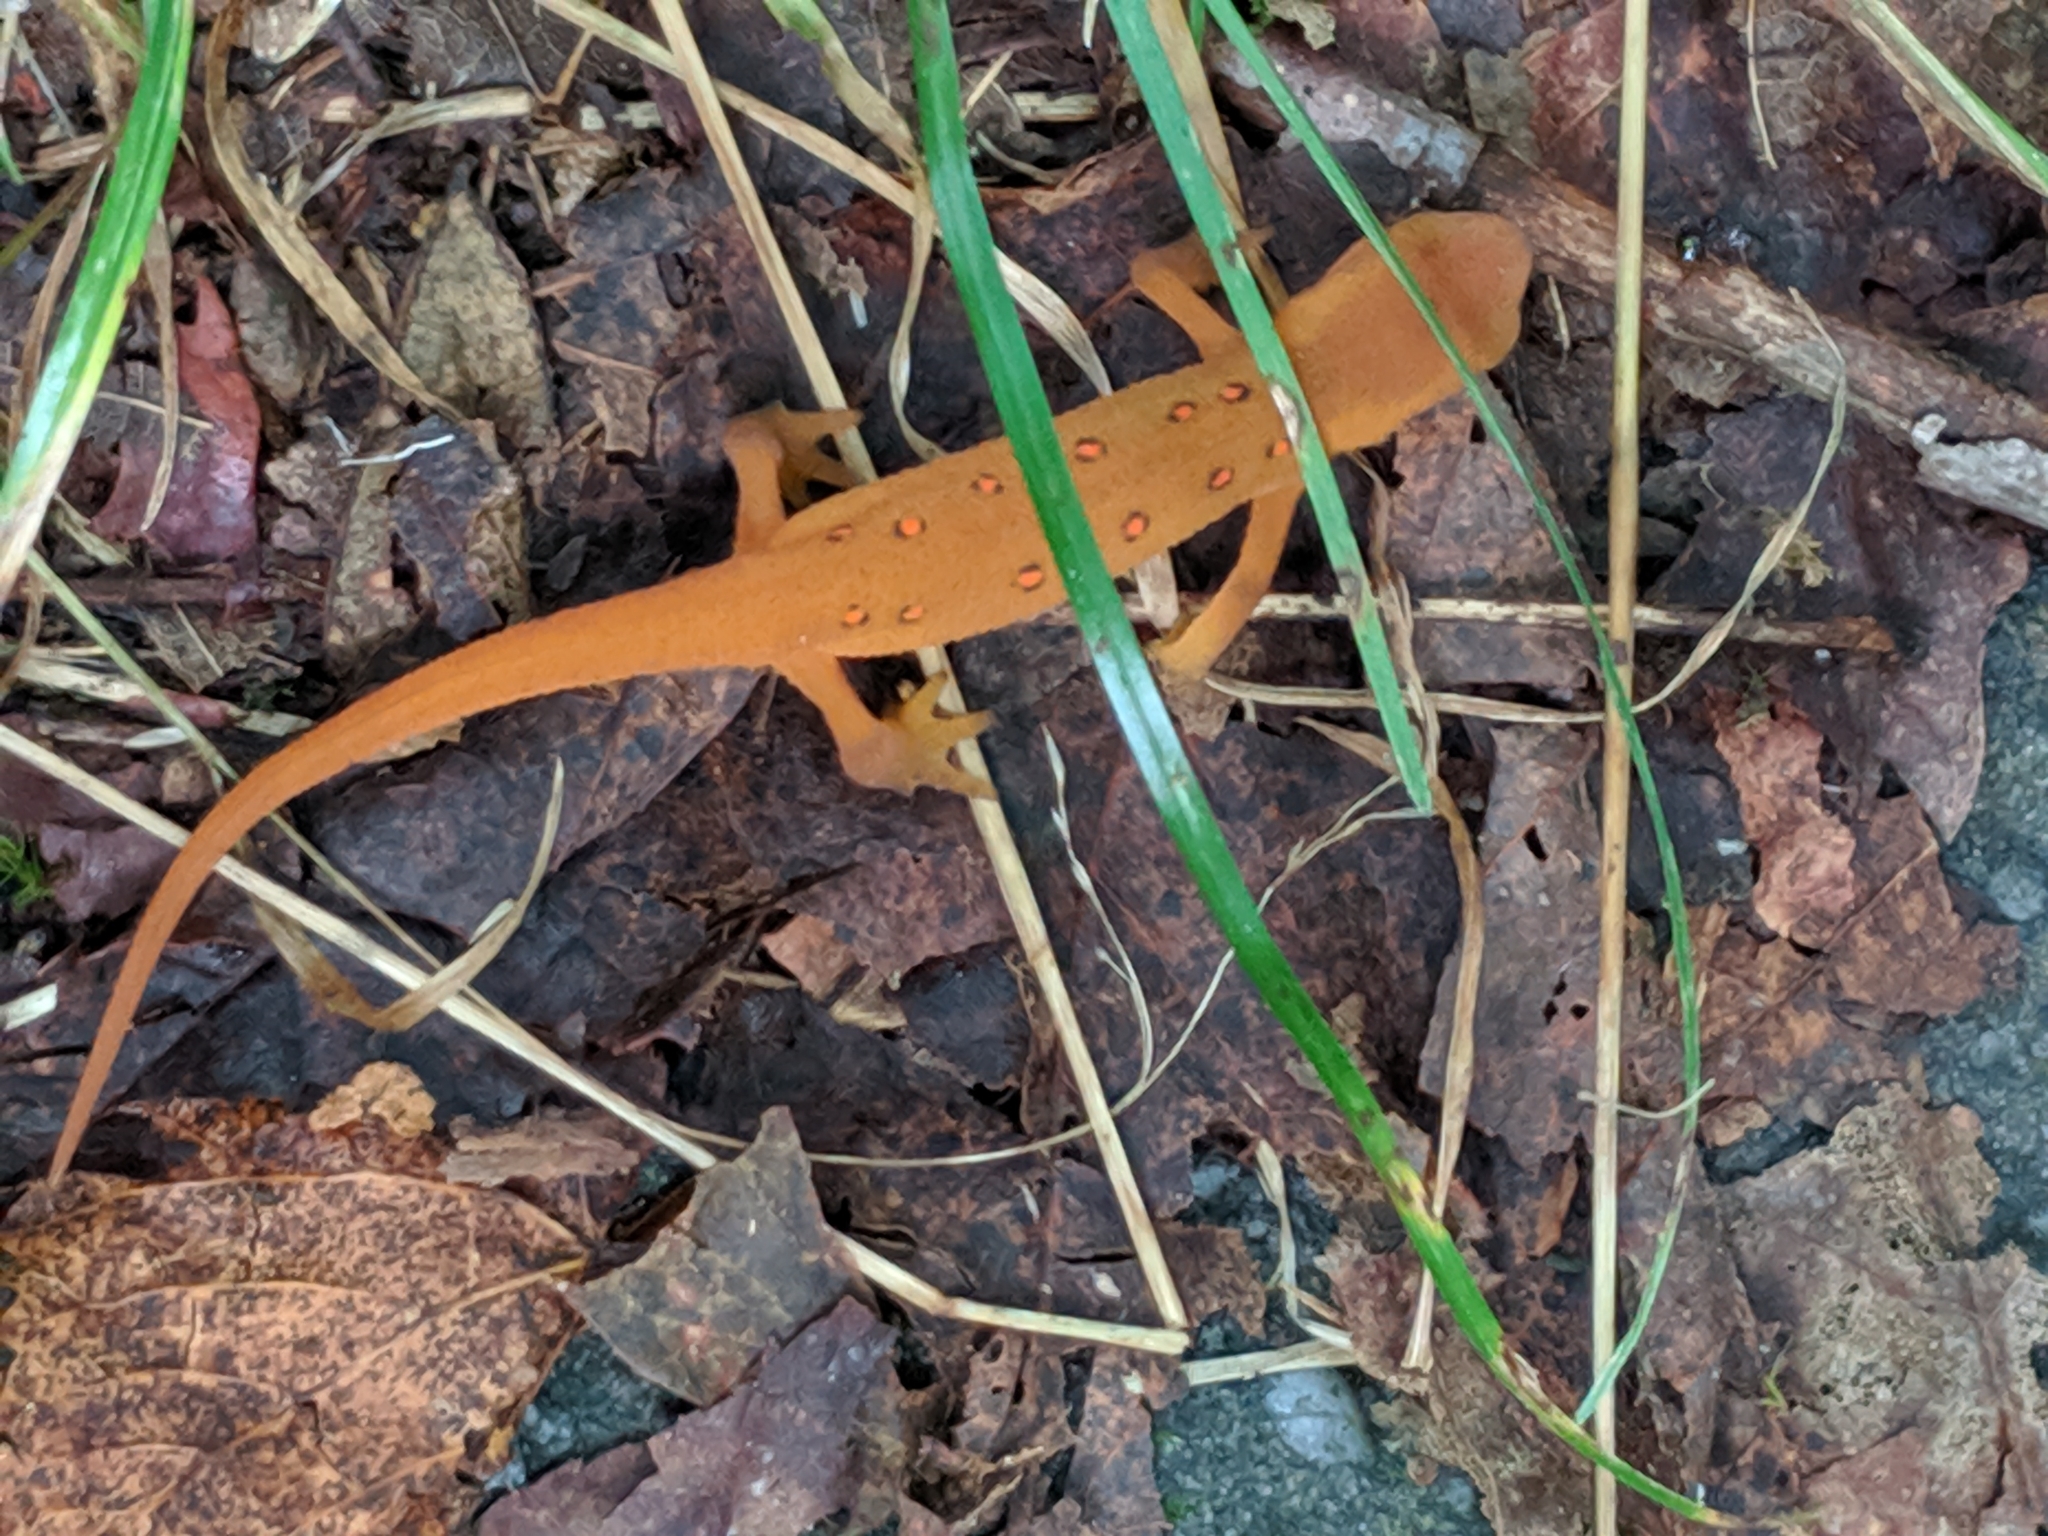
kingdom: Animalia
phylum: Chordata
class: Amphibia
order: Caudata
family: Salamandridae
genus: Notophthalmus
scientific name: Notophthalmus viridescens
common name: Eastern newt
